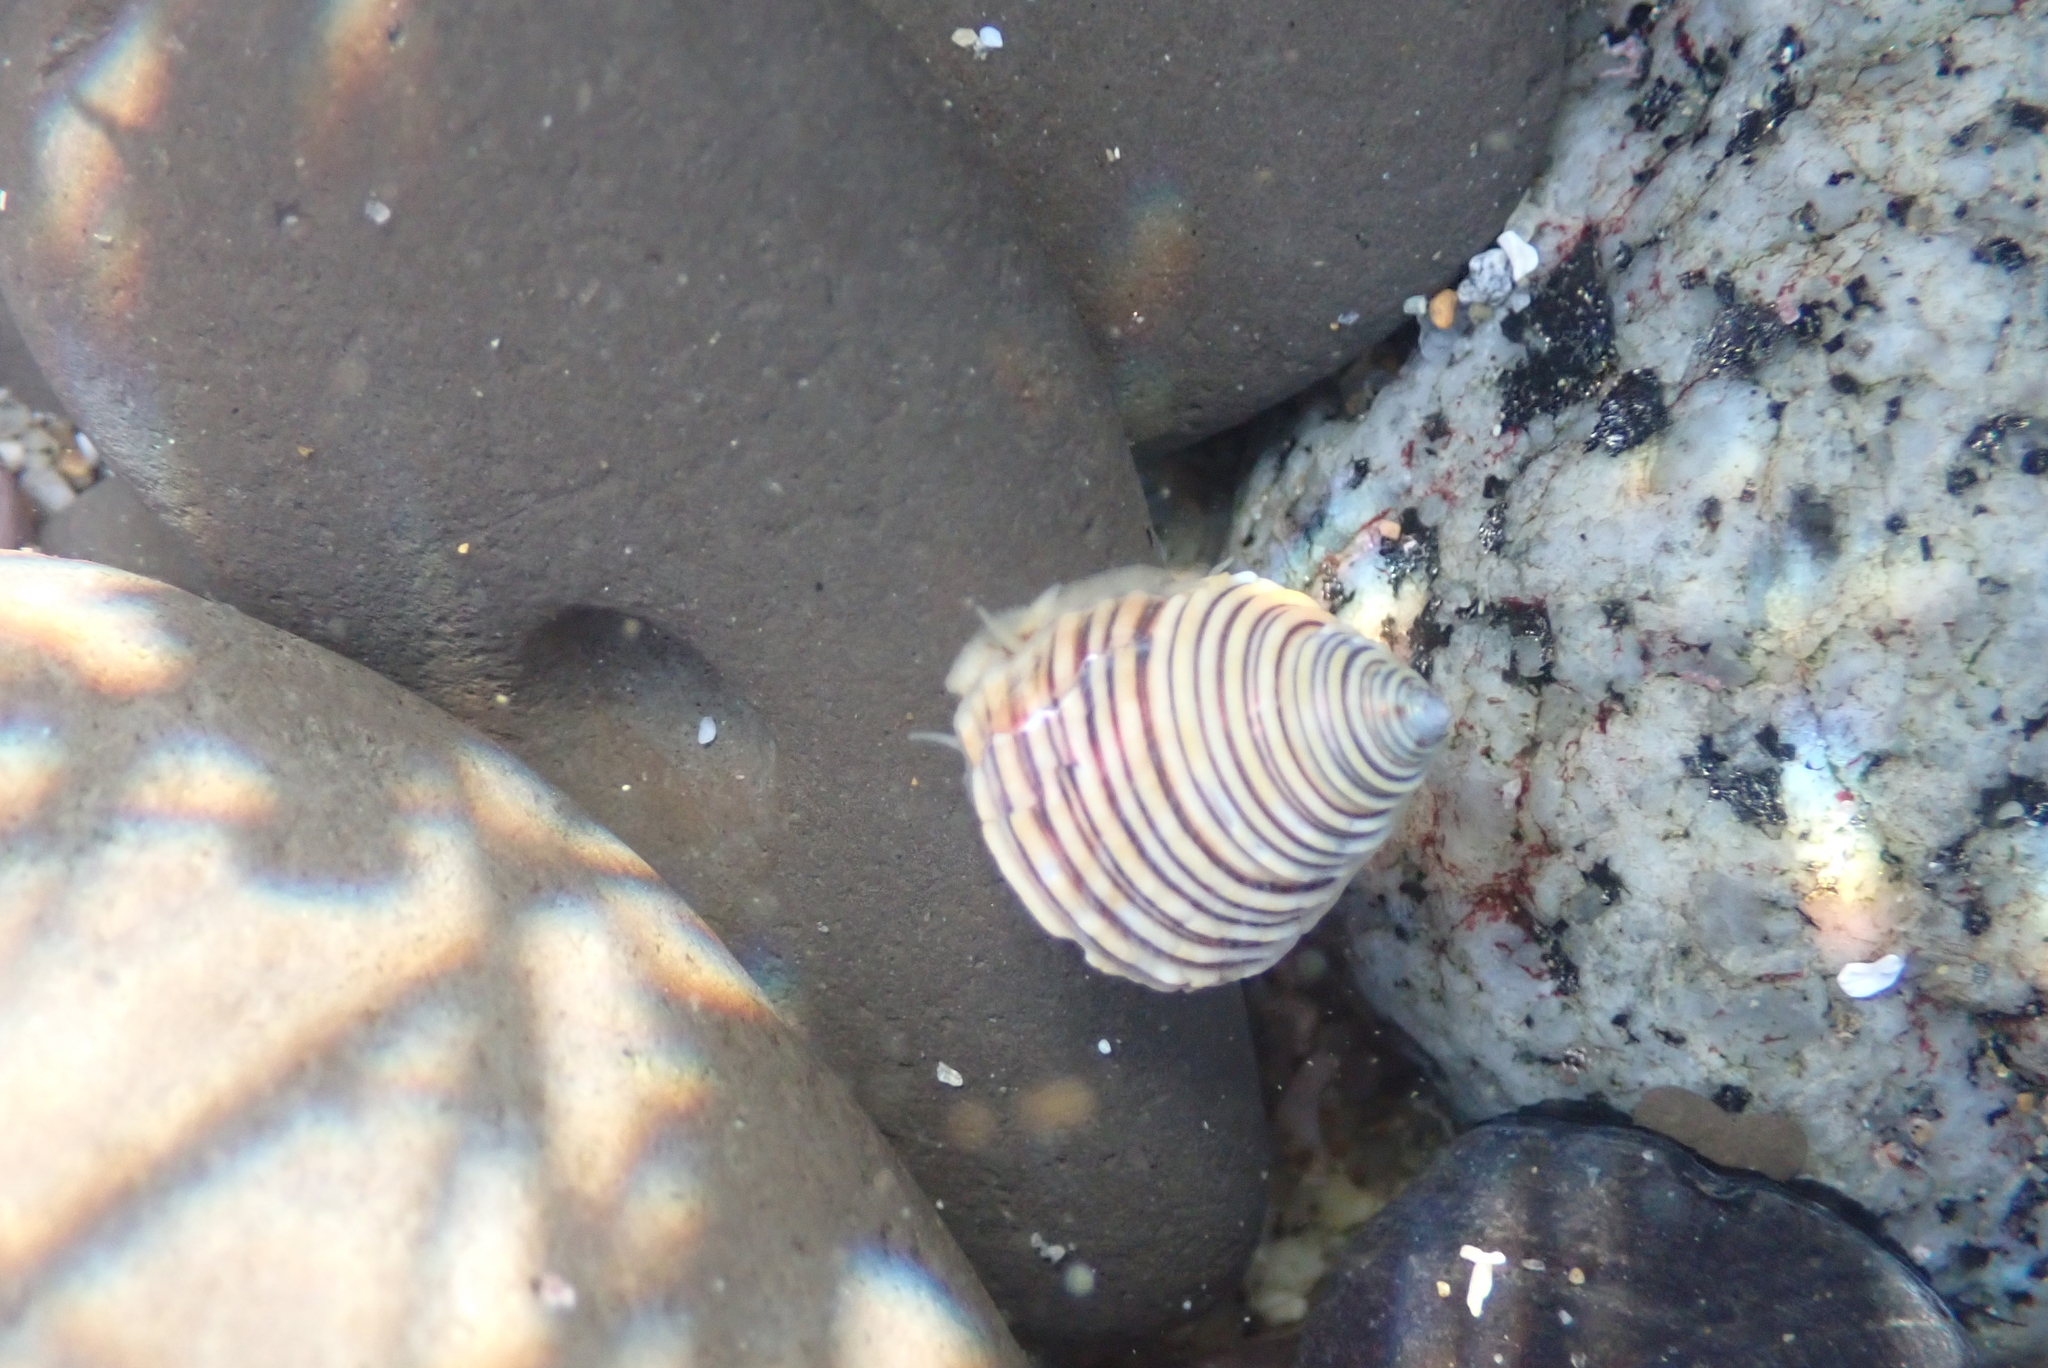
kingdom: Animalia
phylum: Mollusca
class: Gastropoda
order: Trochida
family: Calliostomatidae
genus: Calliostoma
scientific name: Calliostoma canaliculatum
